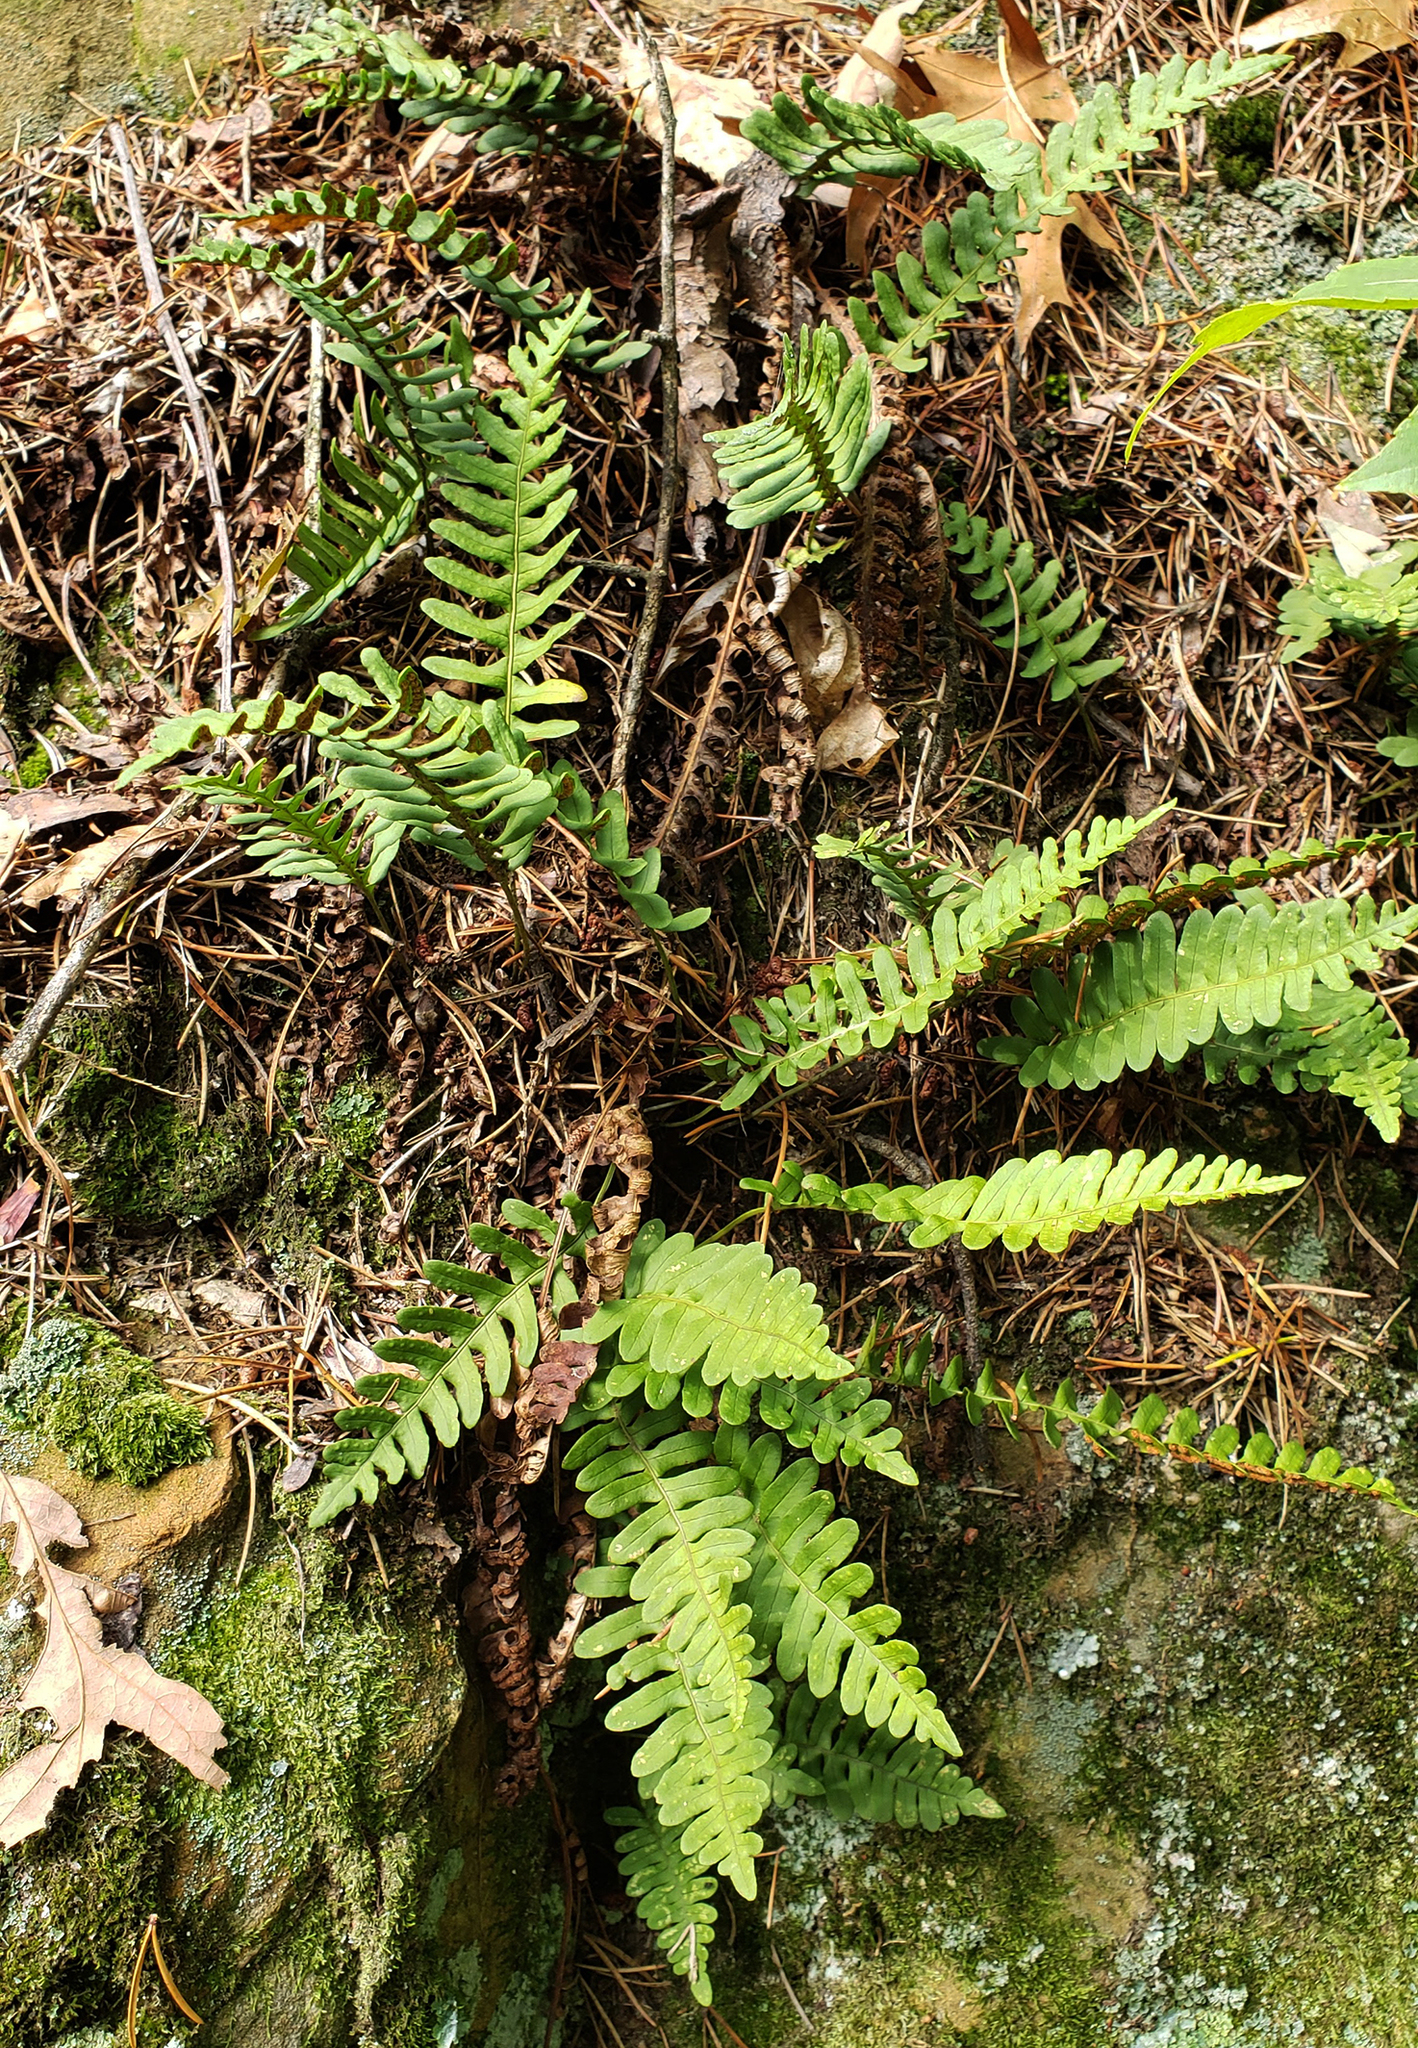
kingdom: Plantae
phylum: Tracheophyta
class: Polypodiopsida
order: Polypodiales
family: Polypodiaceae
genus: Polypodium
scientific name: Polypodium virginianum
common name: American wall fern
